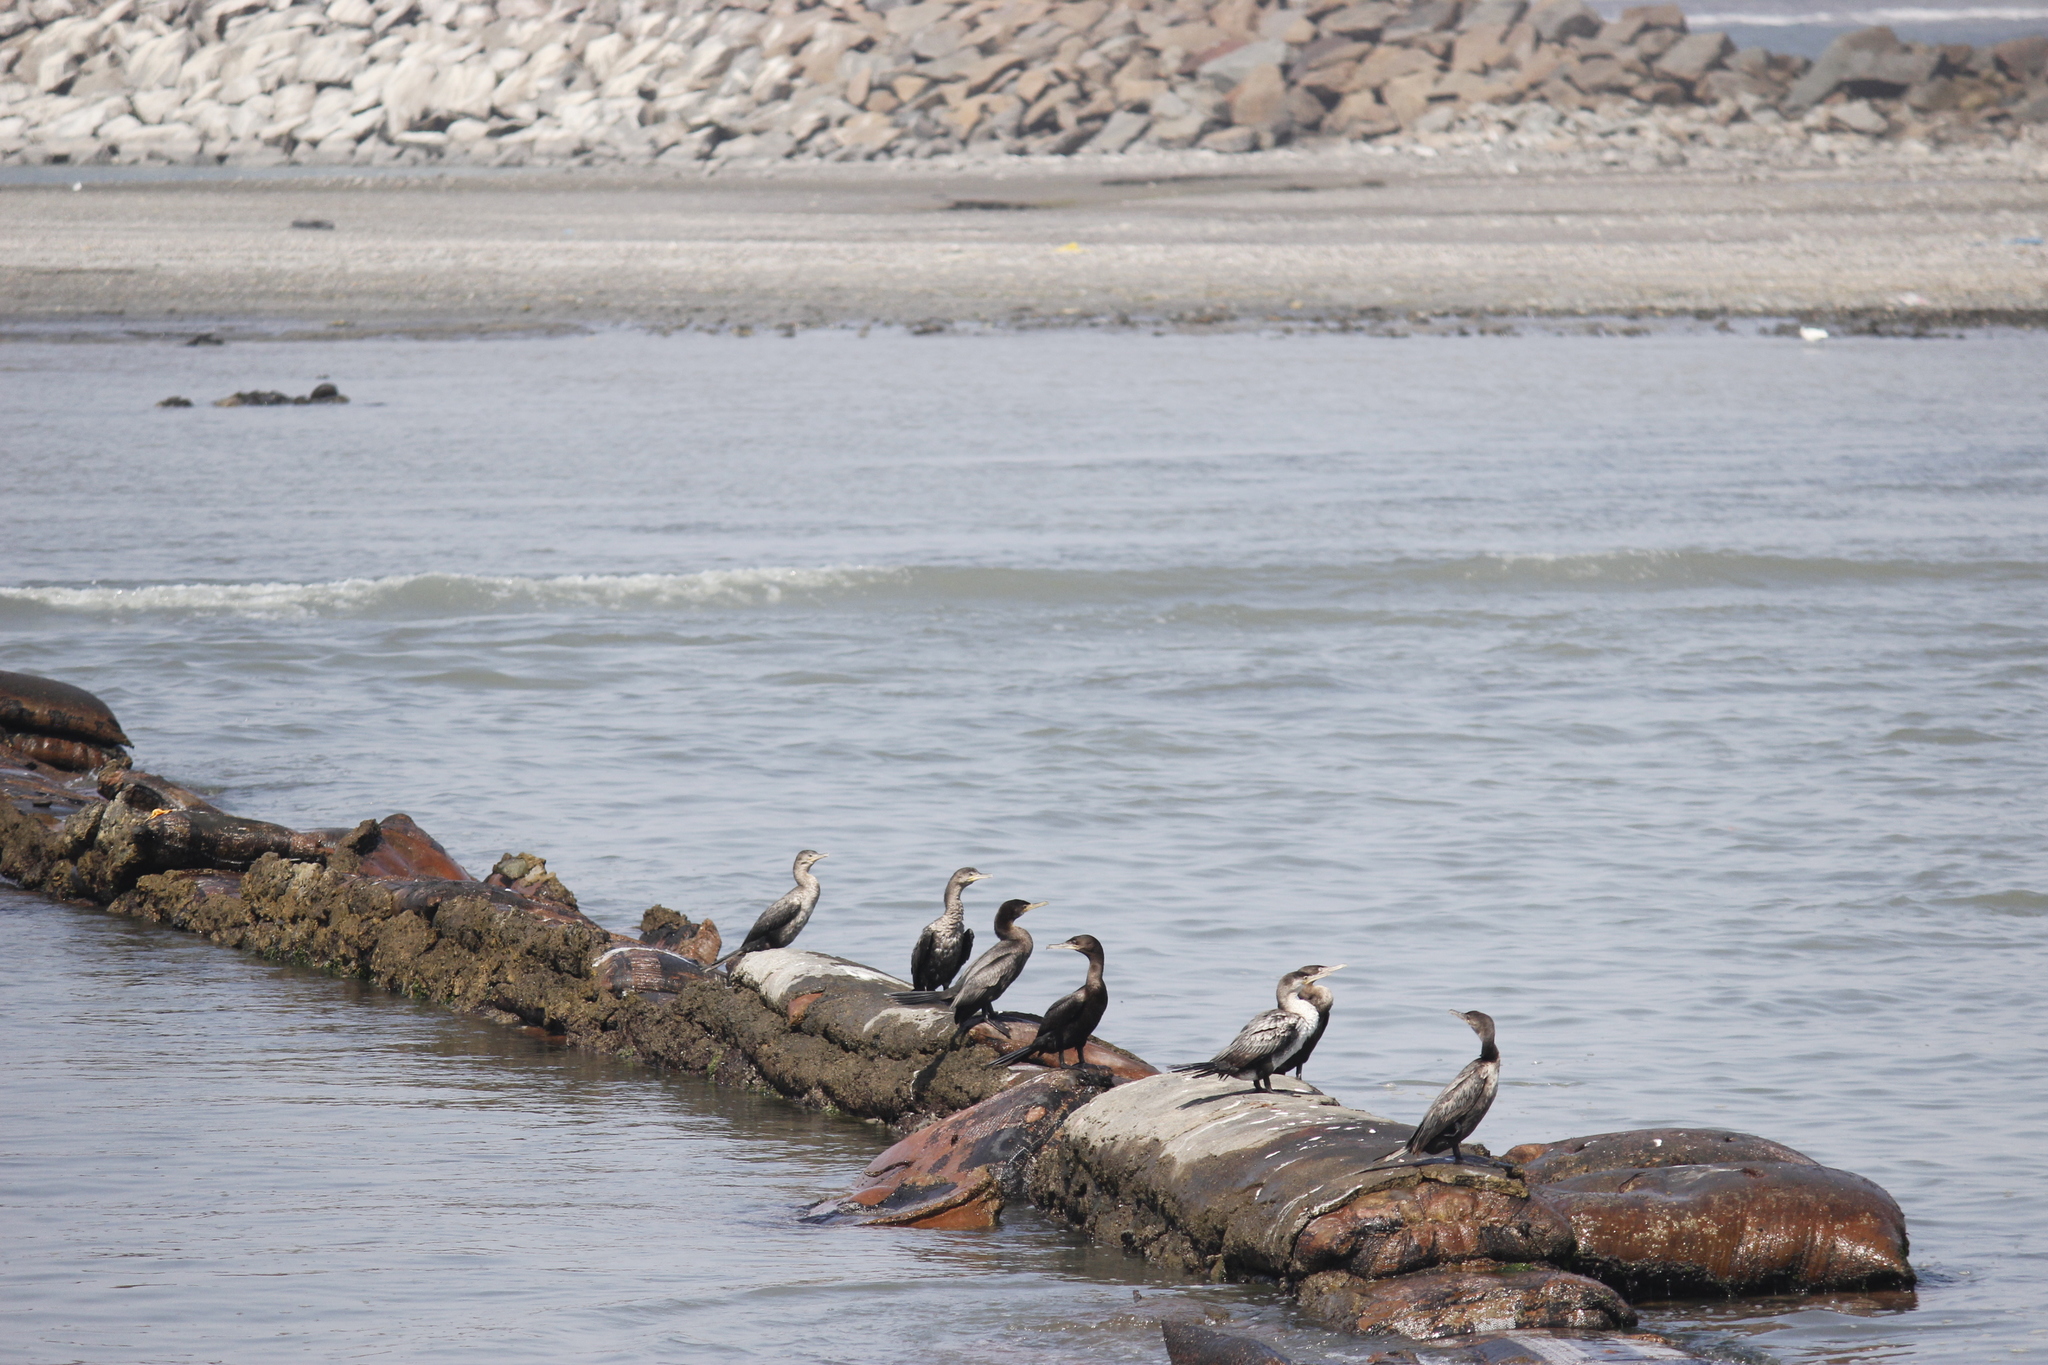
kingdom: Animalia
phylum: Chordata
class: Aves
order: Suliformes
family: Phalacrocoracidae
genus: Phalacrocorax
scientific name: Phalacrocorax brasilianus
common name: Neotropic cormorant
